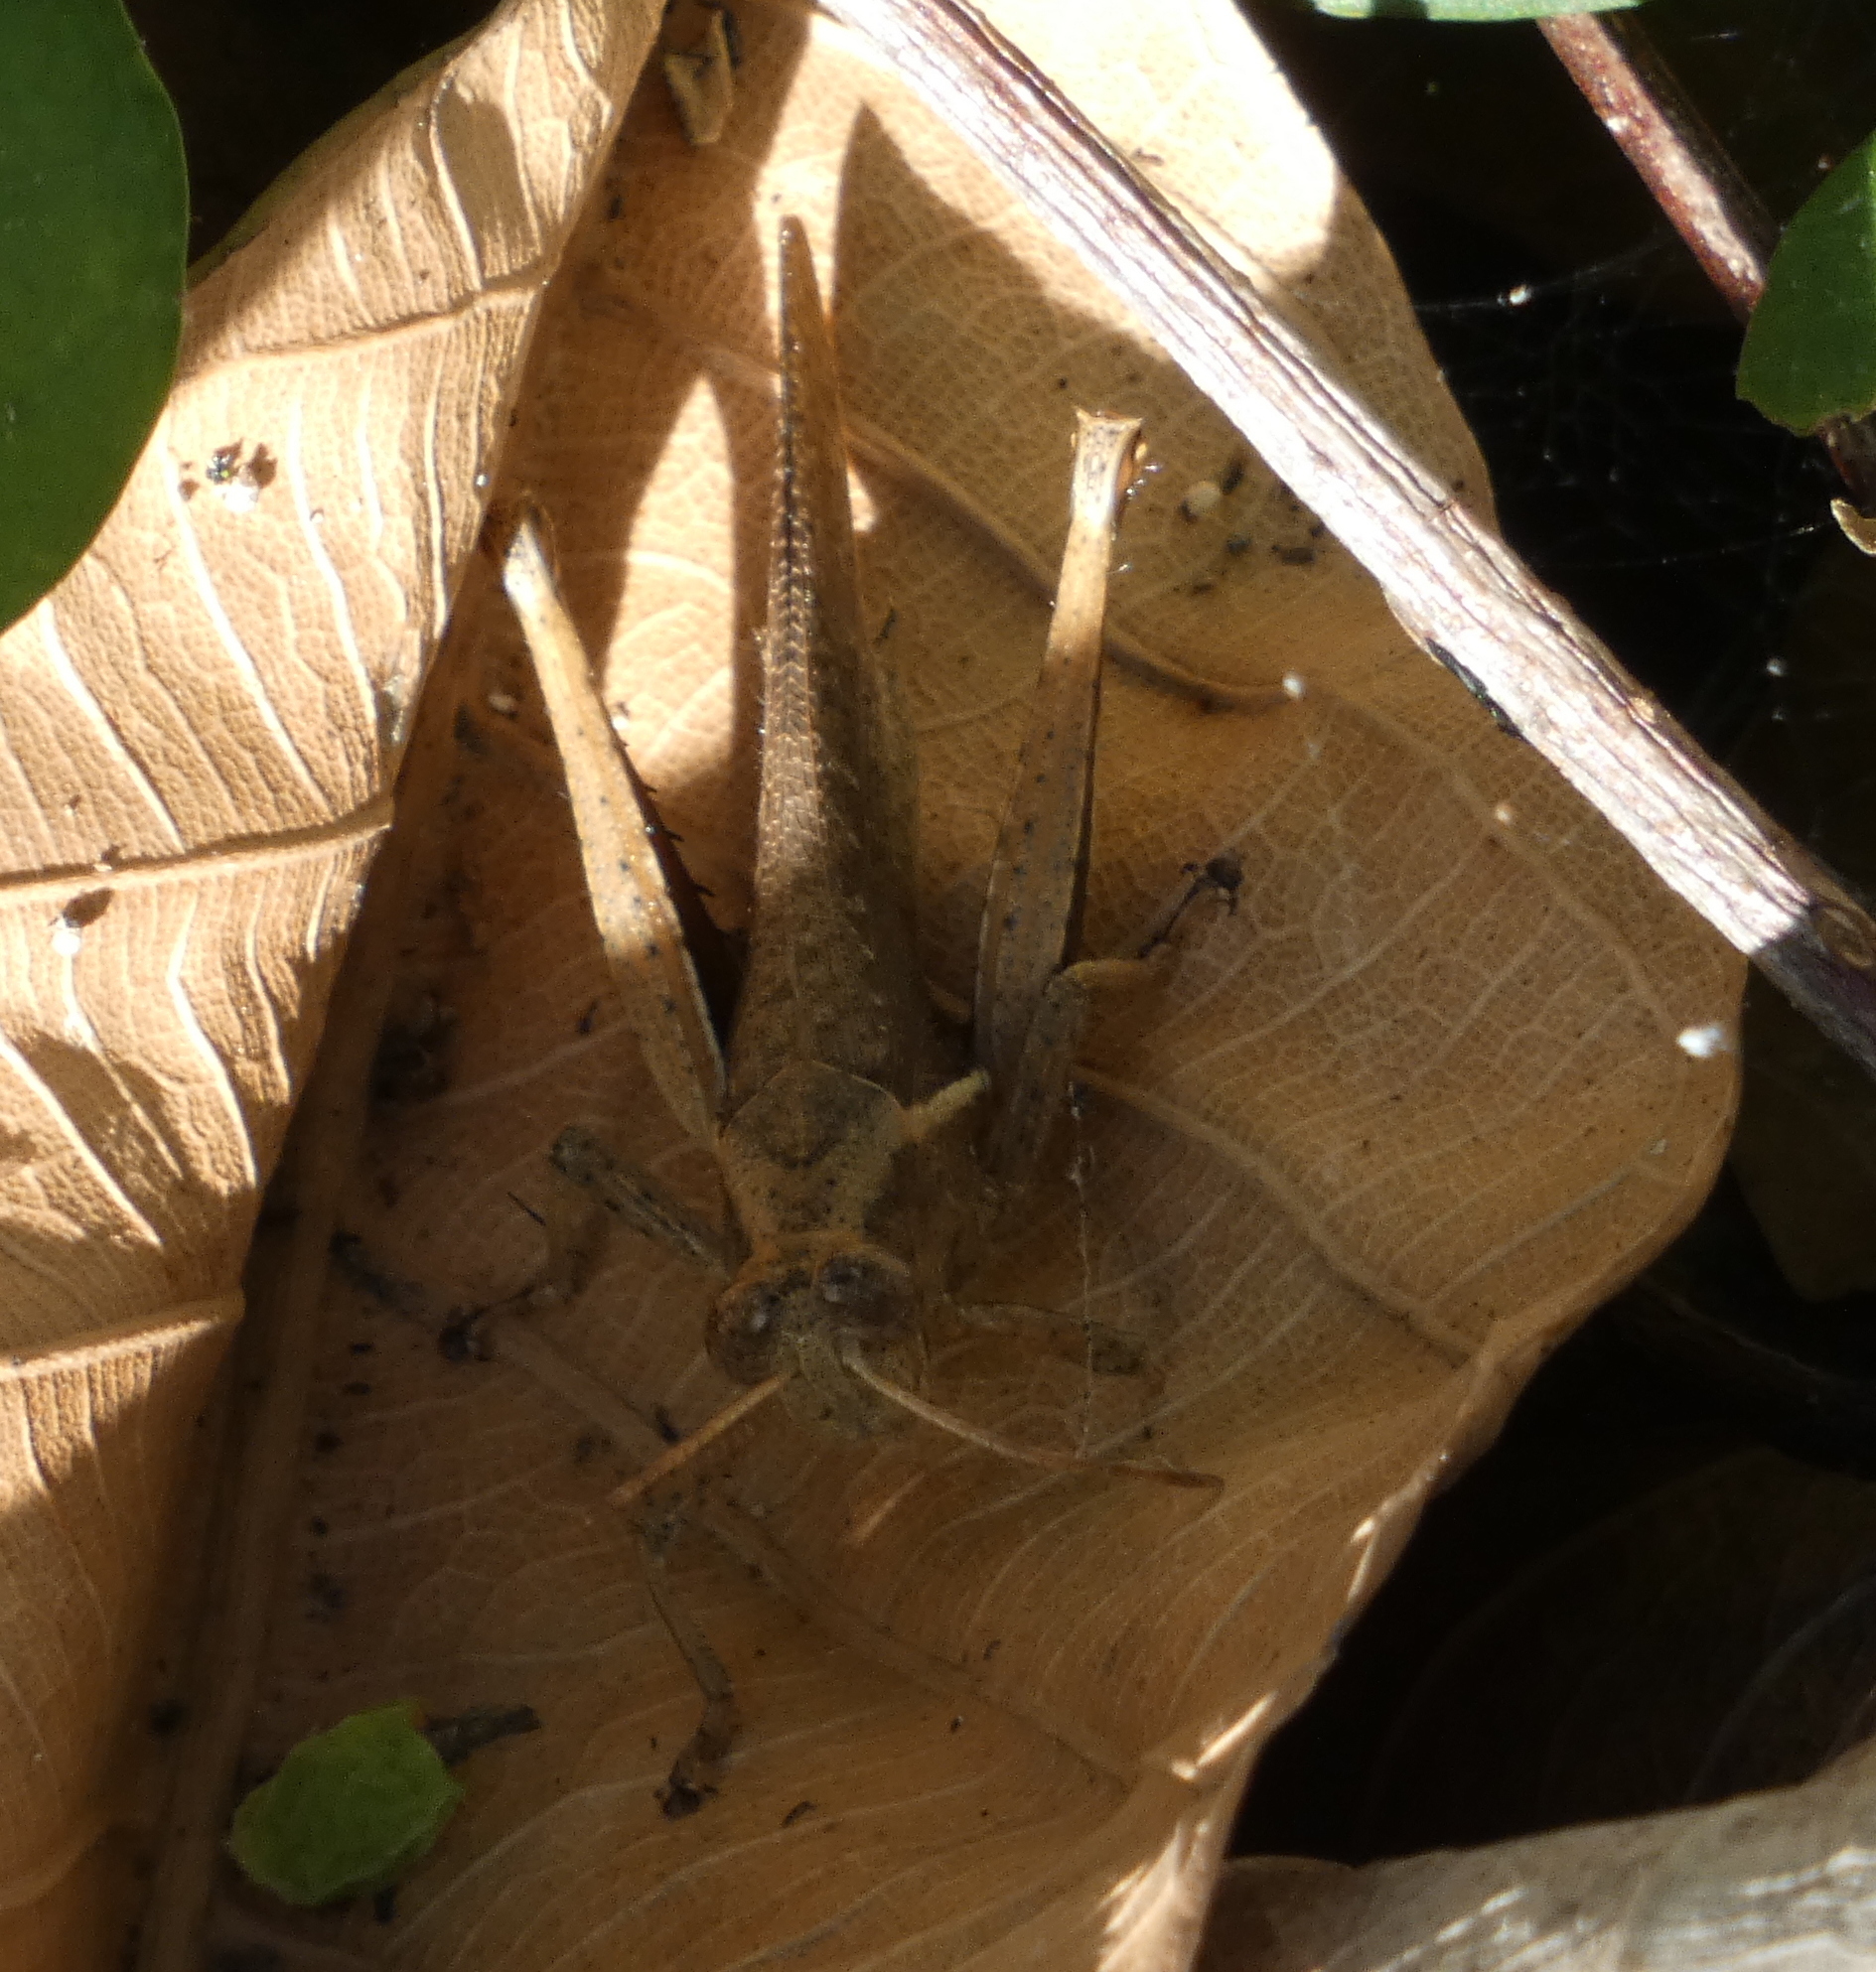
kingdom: Animalia
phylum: Arthropoda
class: Insecta
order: Orthoptera
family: Acrididae
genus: Abracris
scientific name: Abracris flavolineata
